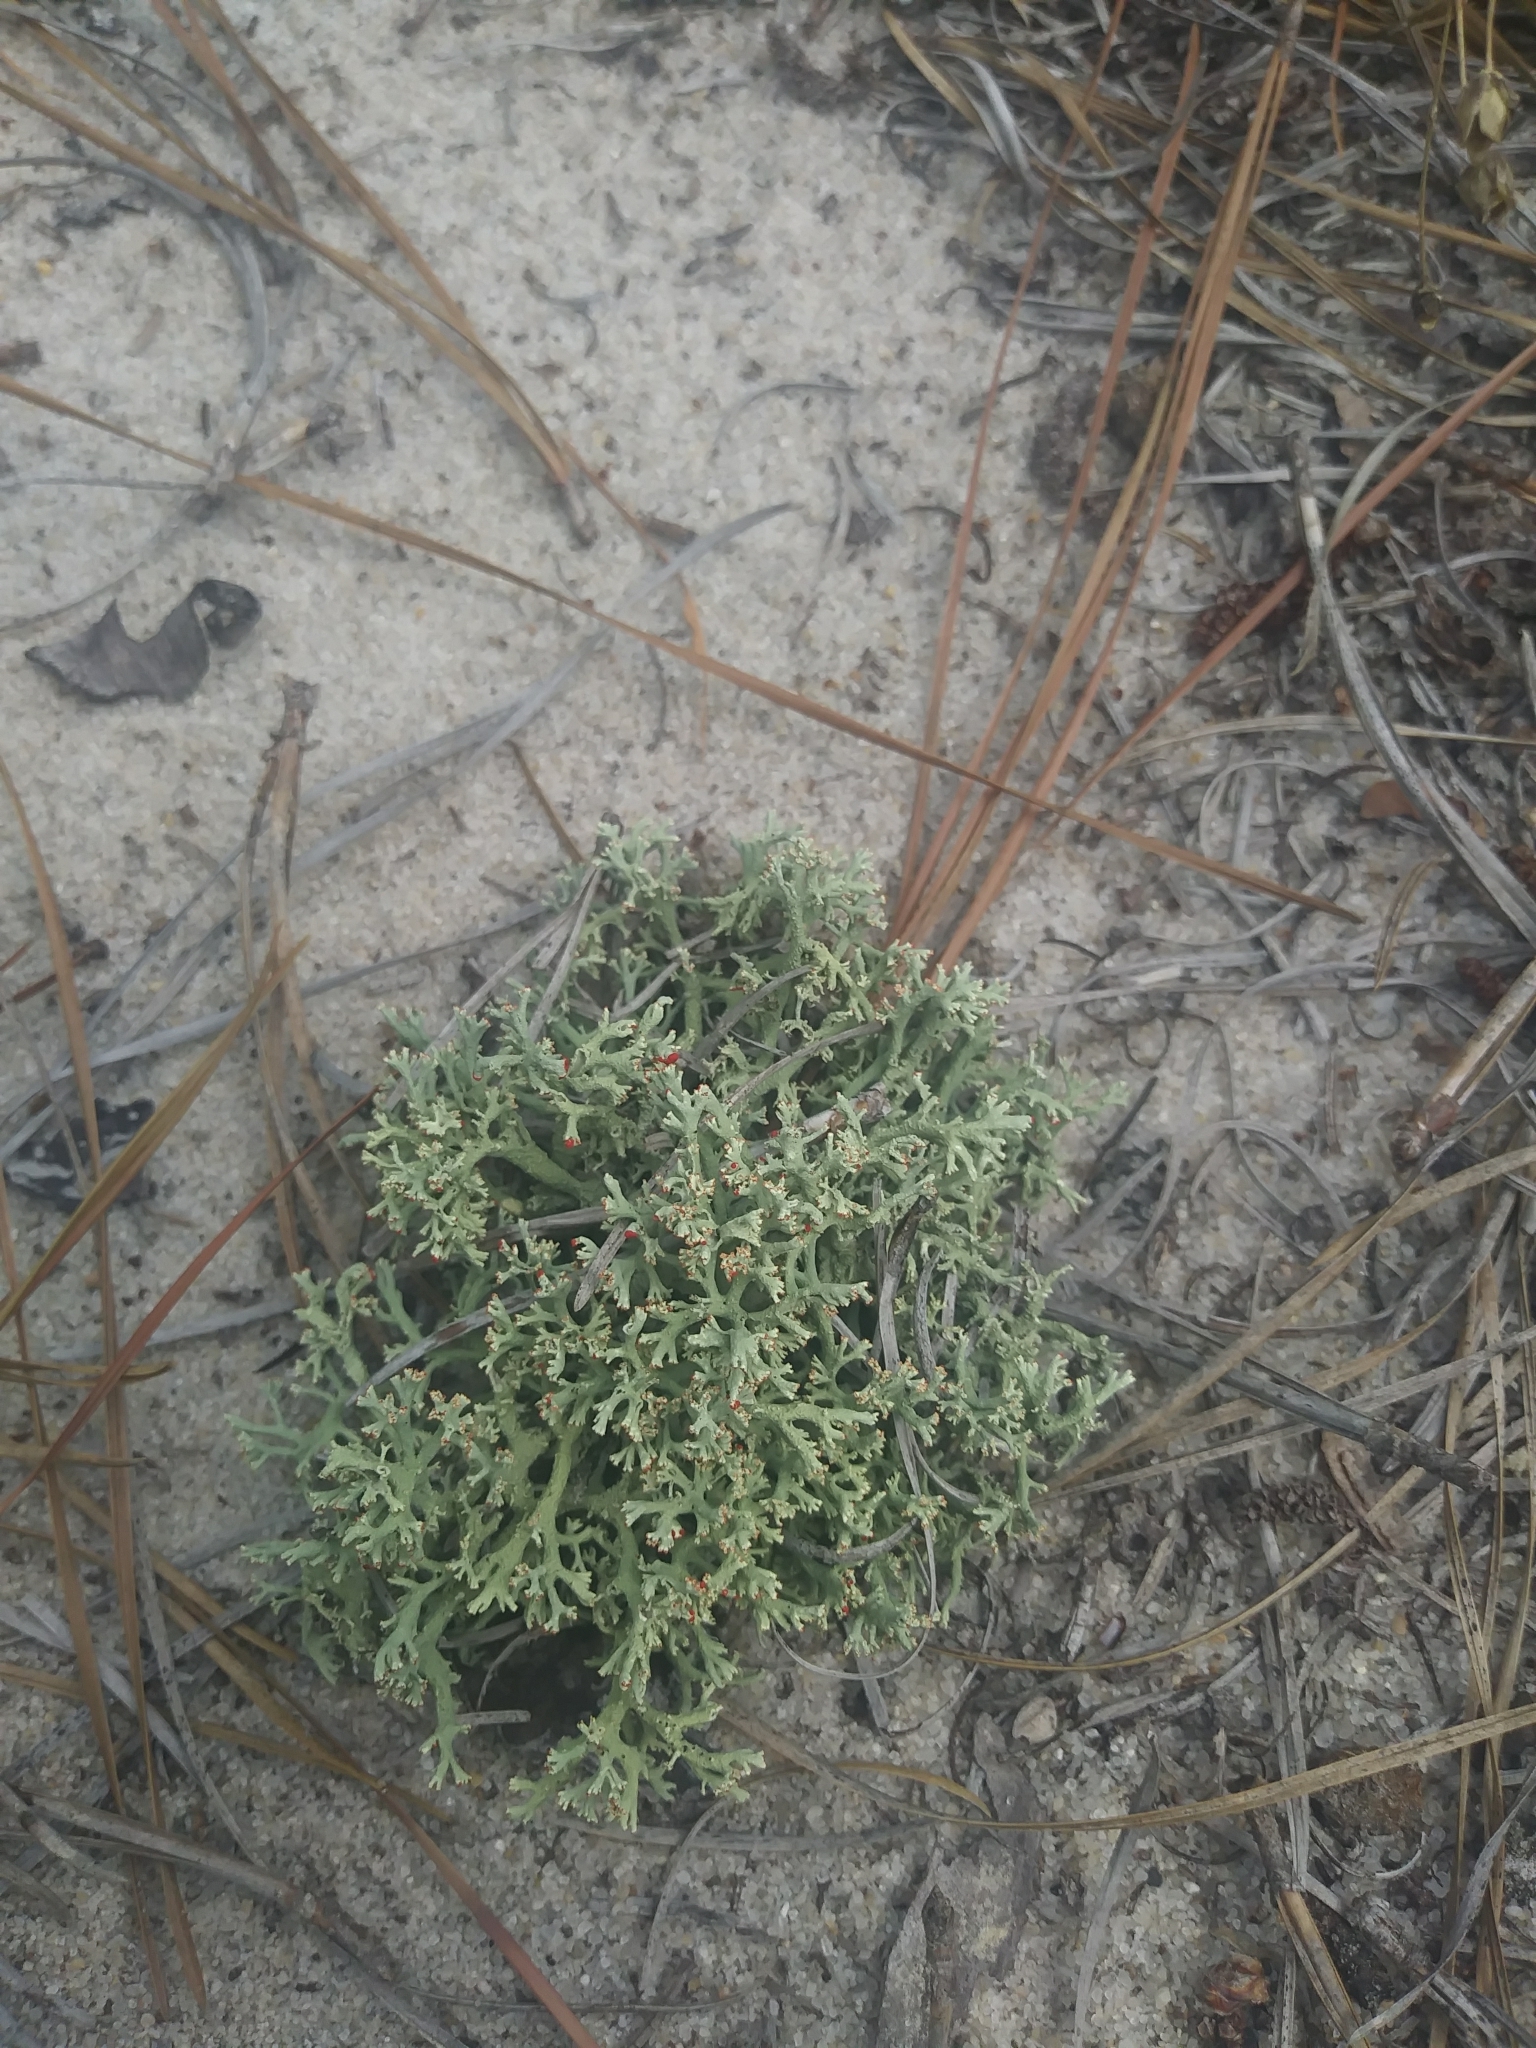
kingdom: Fungi
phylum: Ascomycota
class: Lecanoromycetes
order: Lecanorales
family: Cladoniaceae
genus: Cladonia
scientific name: Cladonia leporina
